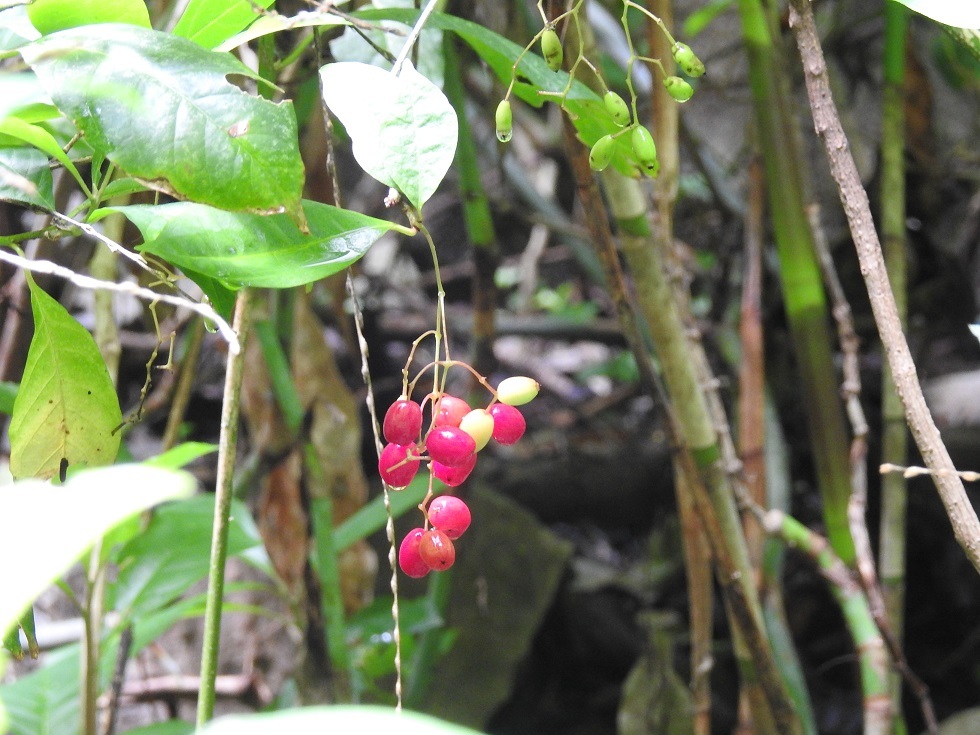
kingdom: Plantae
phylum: Tracheophyta
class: Magnoliopsida
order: Caryophyllales
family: Nyctaginaceae
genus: Neea
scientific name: Neea psychotrioides
